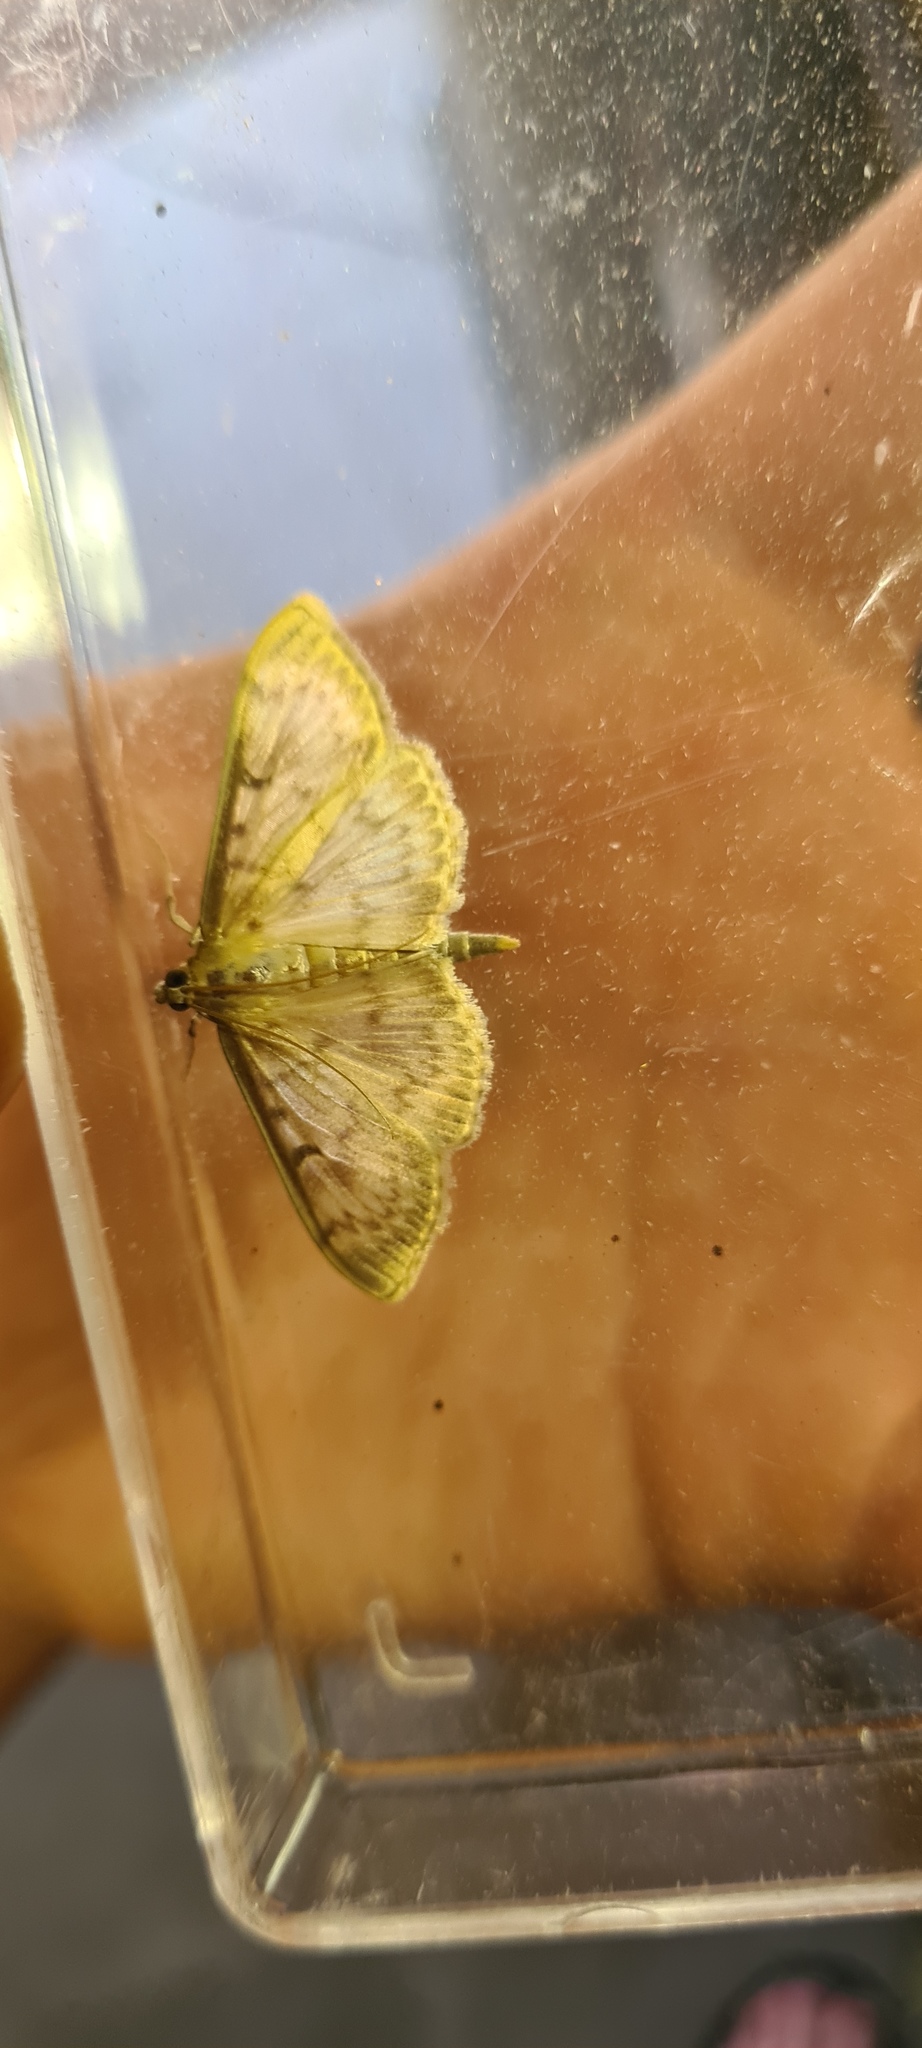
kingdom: Animalia
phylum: Arthropoda
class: Insecta
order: Lepidoptera
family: Crambidae
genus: Patania
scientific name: Patania ruralis
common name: Mother of pearl
